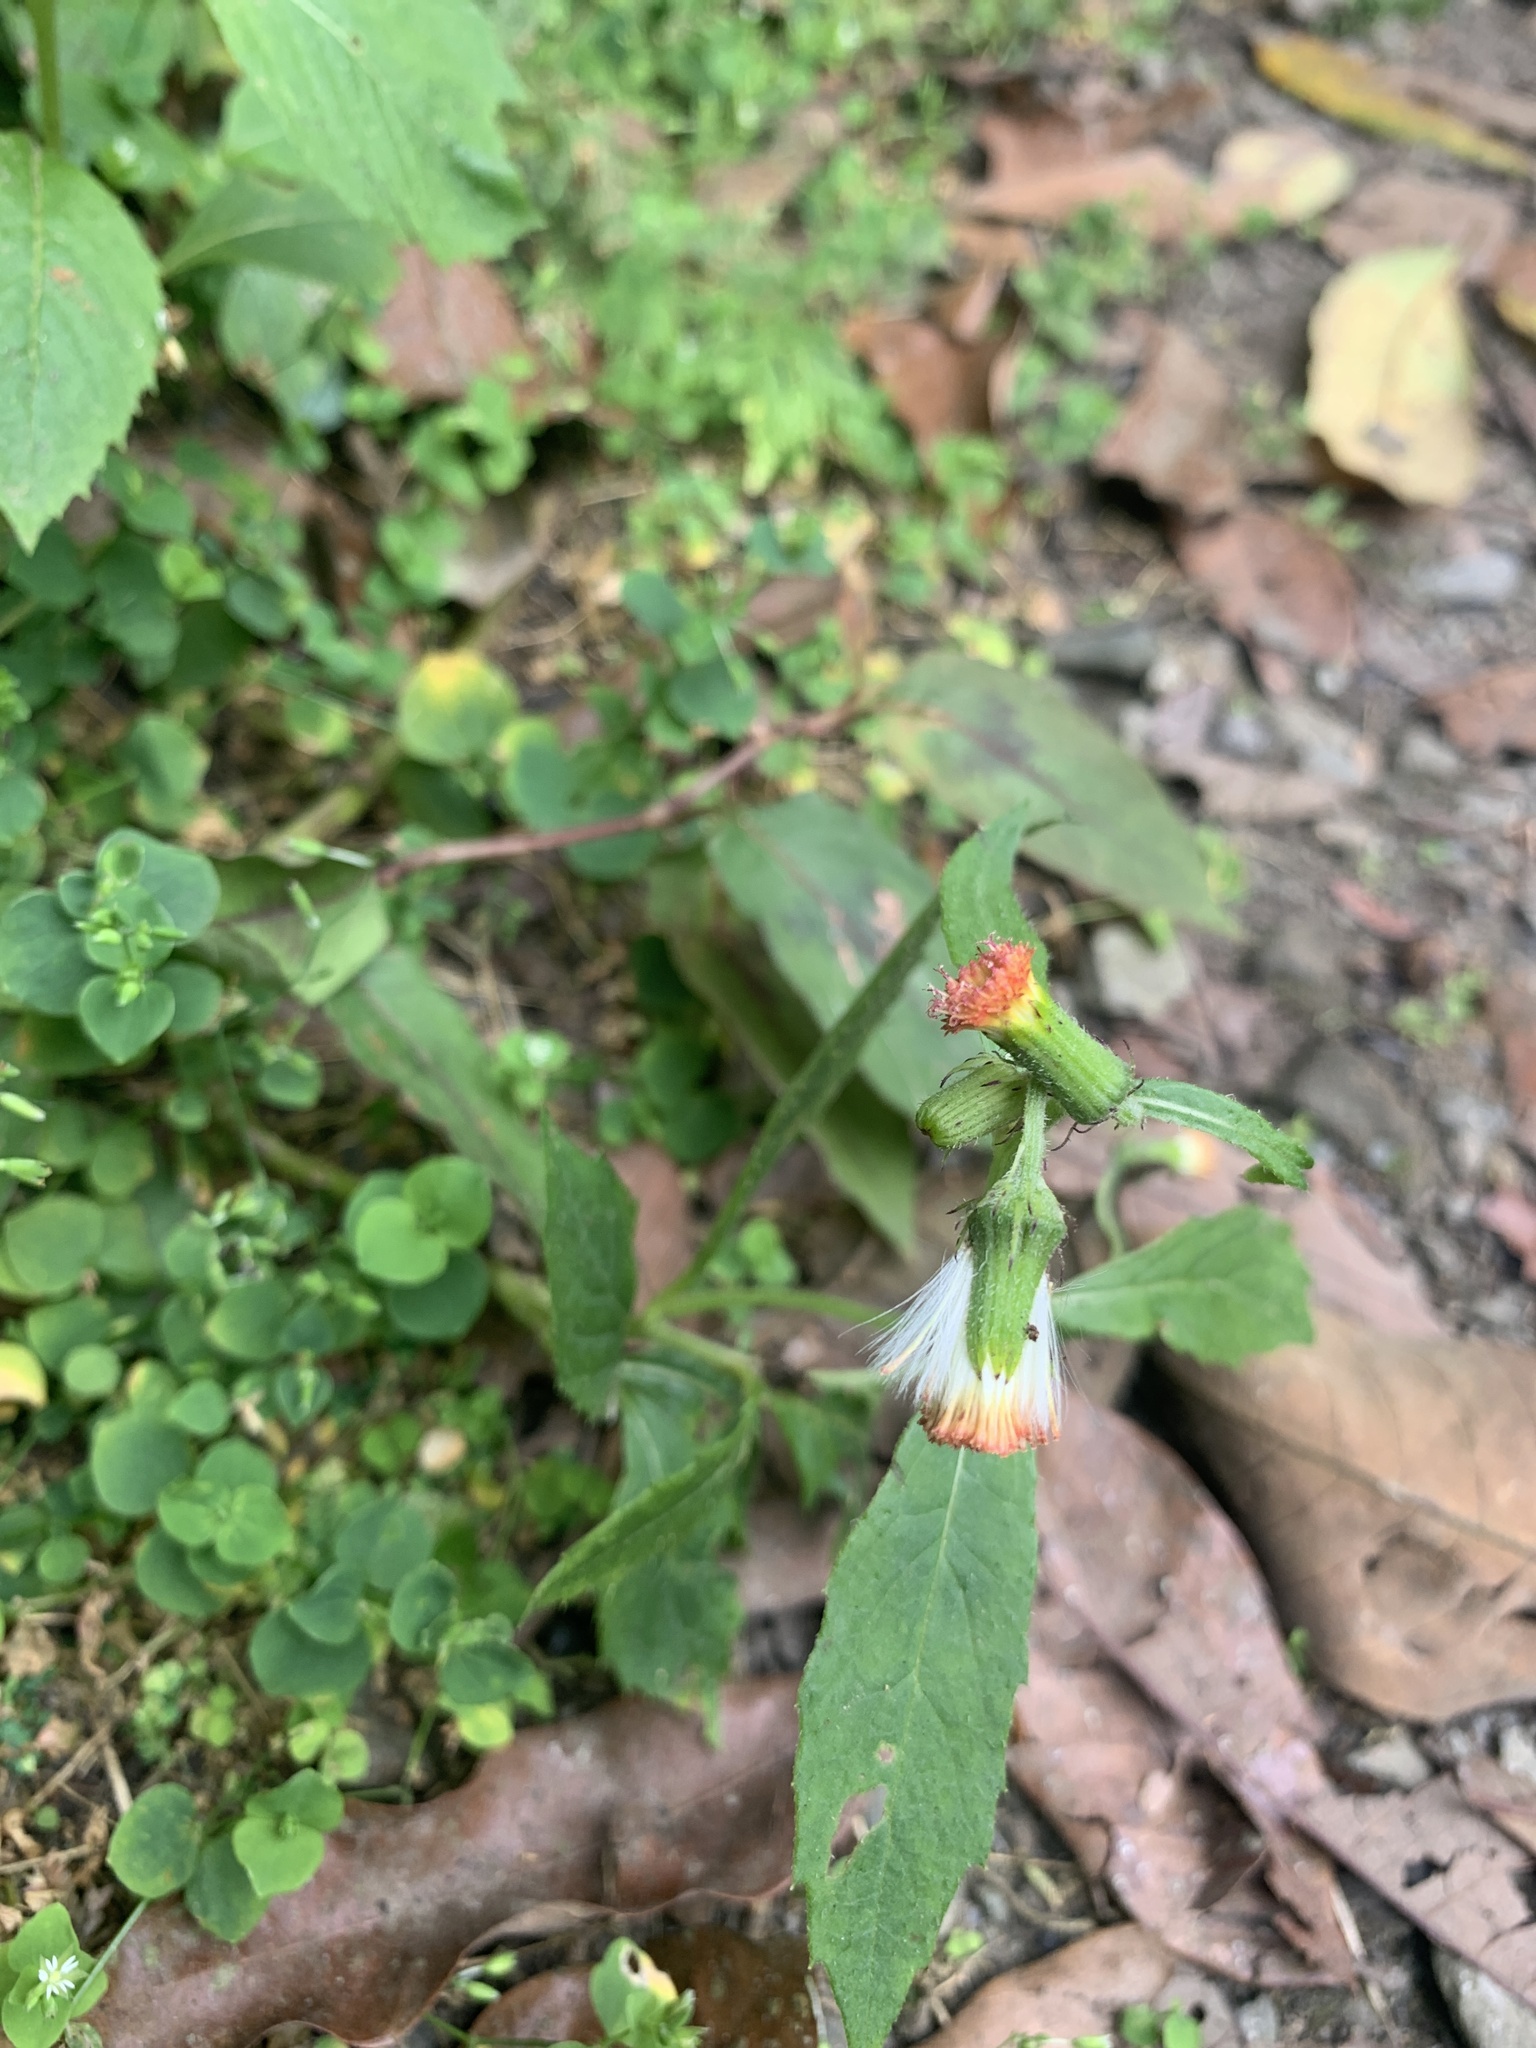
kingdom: Plantae
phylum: Tracheophyta
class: Magnoliopsida
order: Asterales
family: Asteraceae
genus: Crassocephalum
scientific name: Crassocephalum crepidioides
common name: Redflower ragleaf
